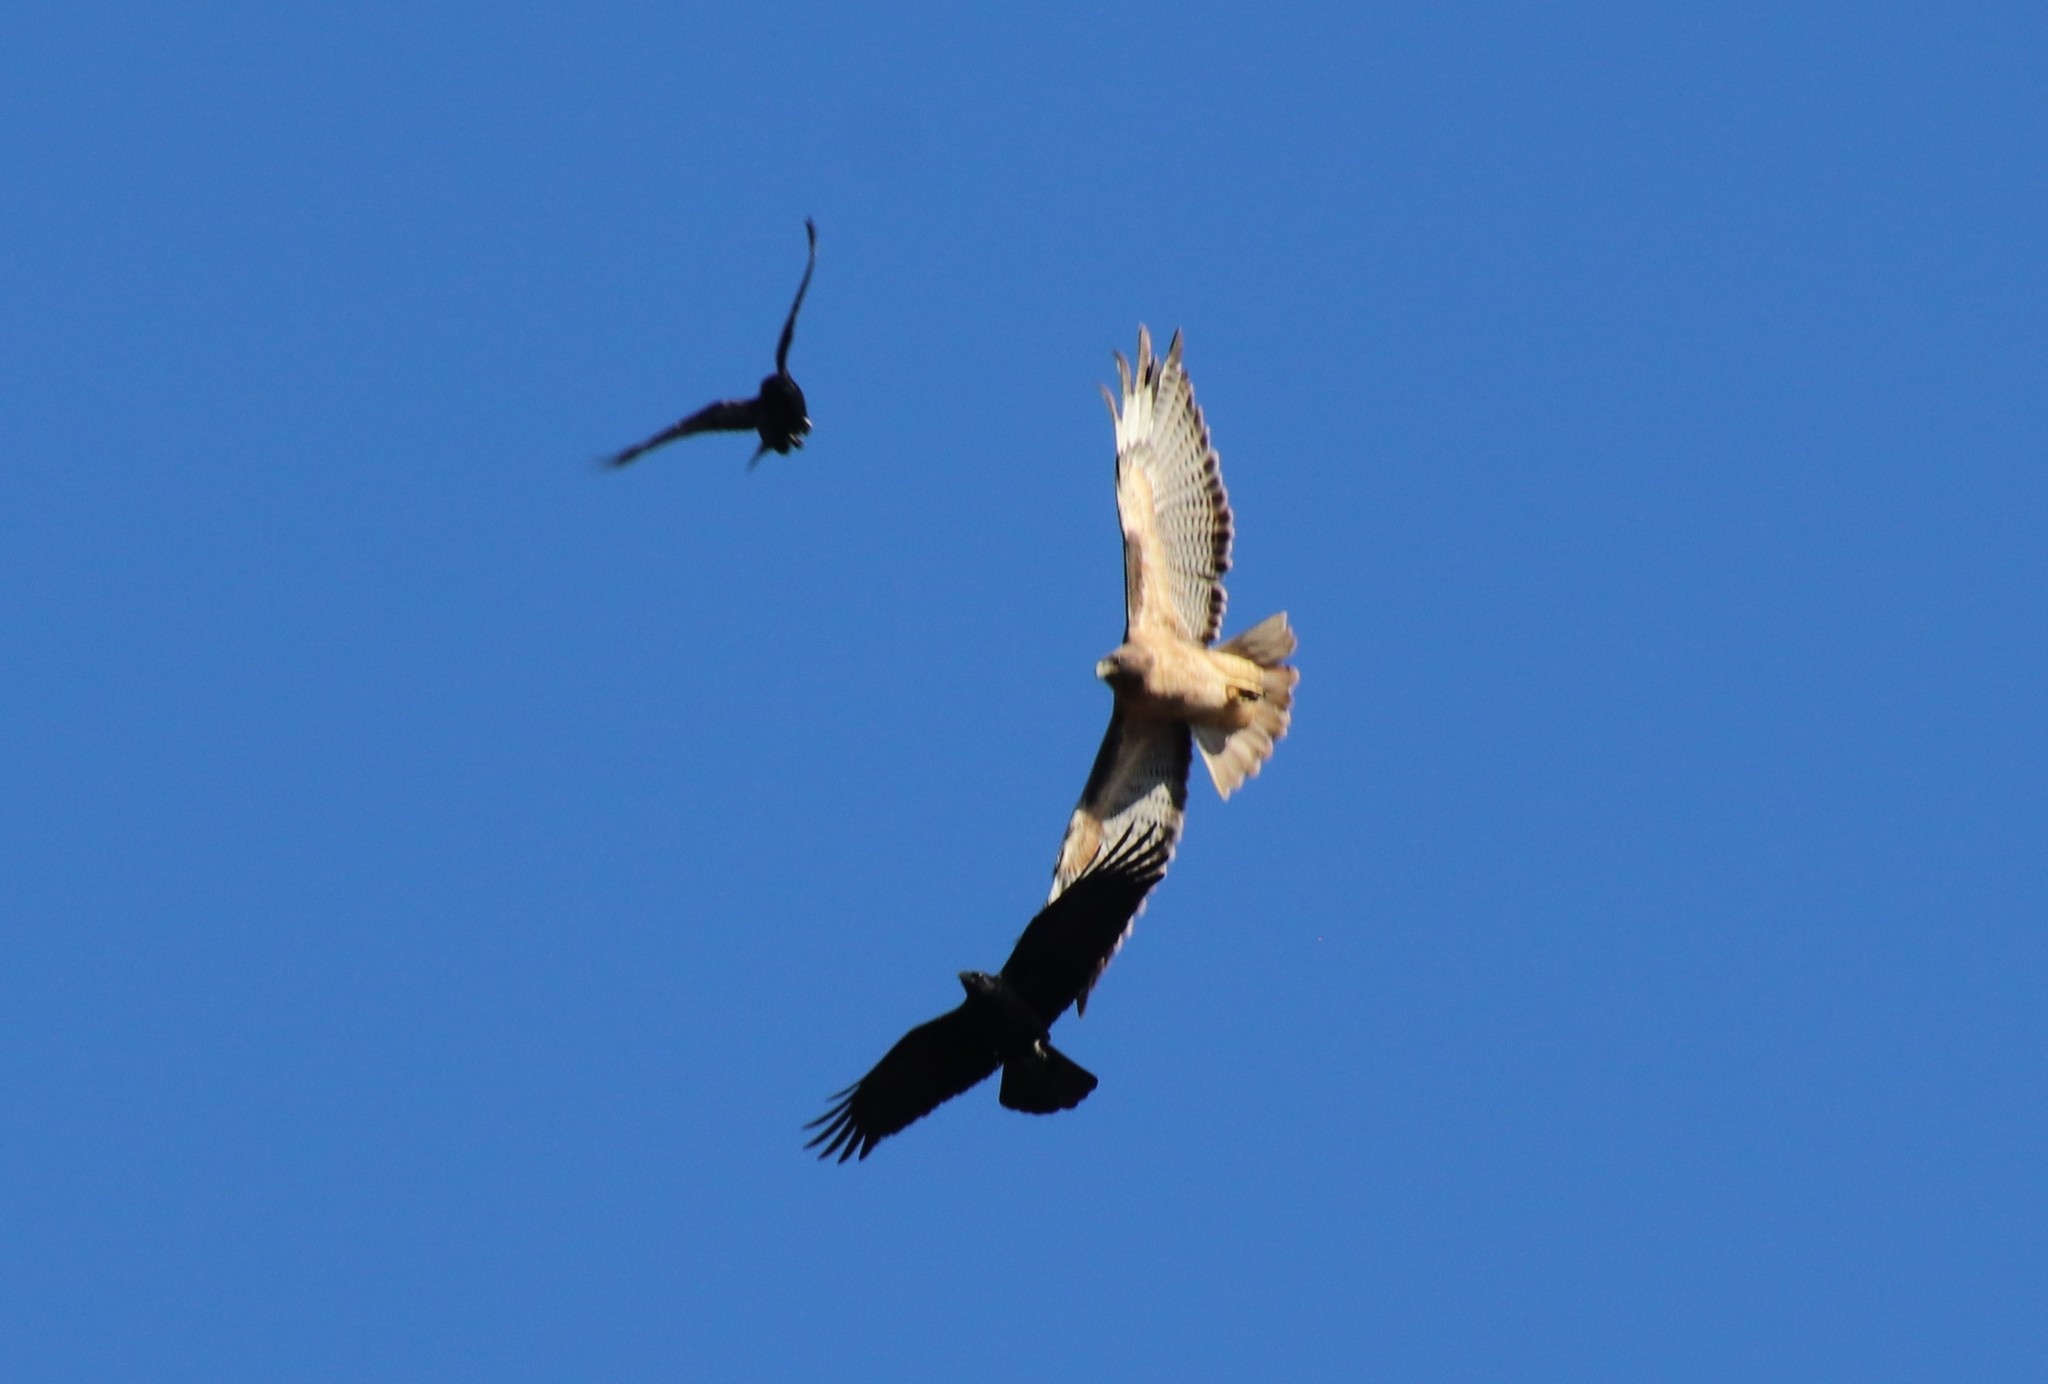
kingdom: Animalia
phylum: Chordata
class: Aves
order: Accipitriformes
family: Accipitridae
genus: Buteo
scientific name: Buteo jamaicensis
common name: Red-tailed hawk
